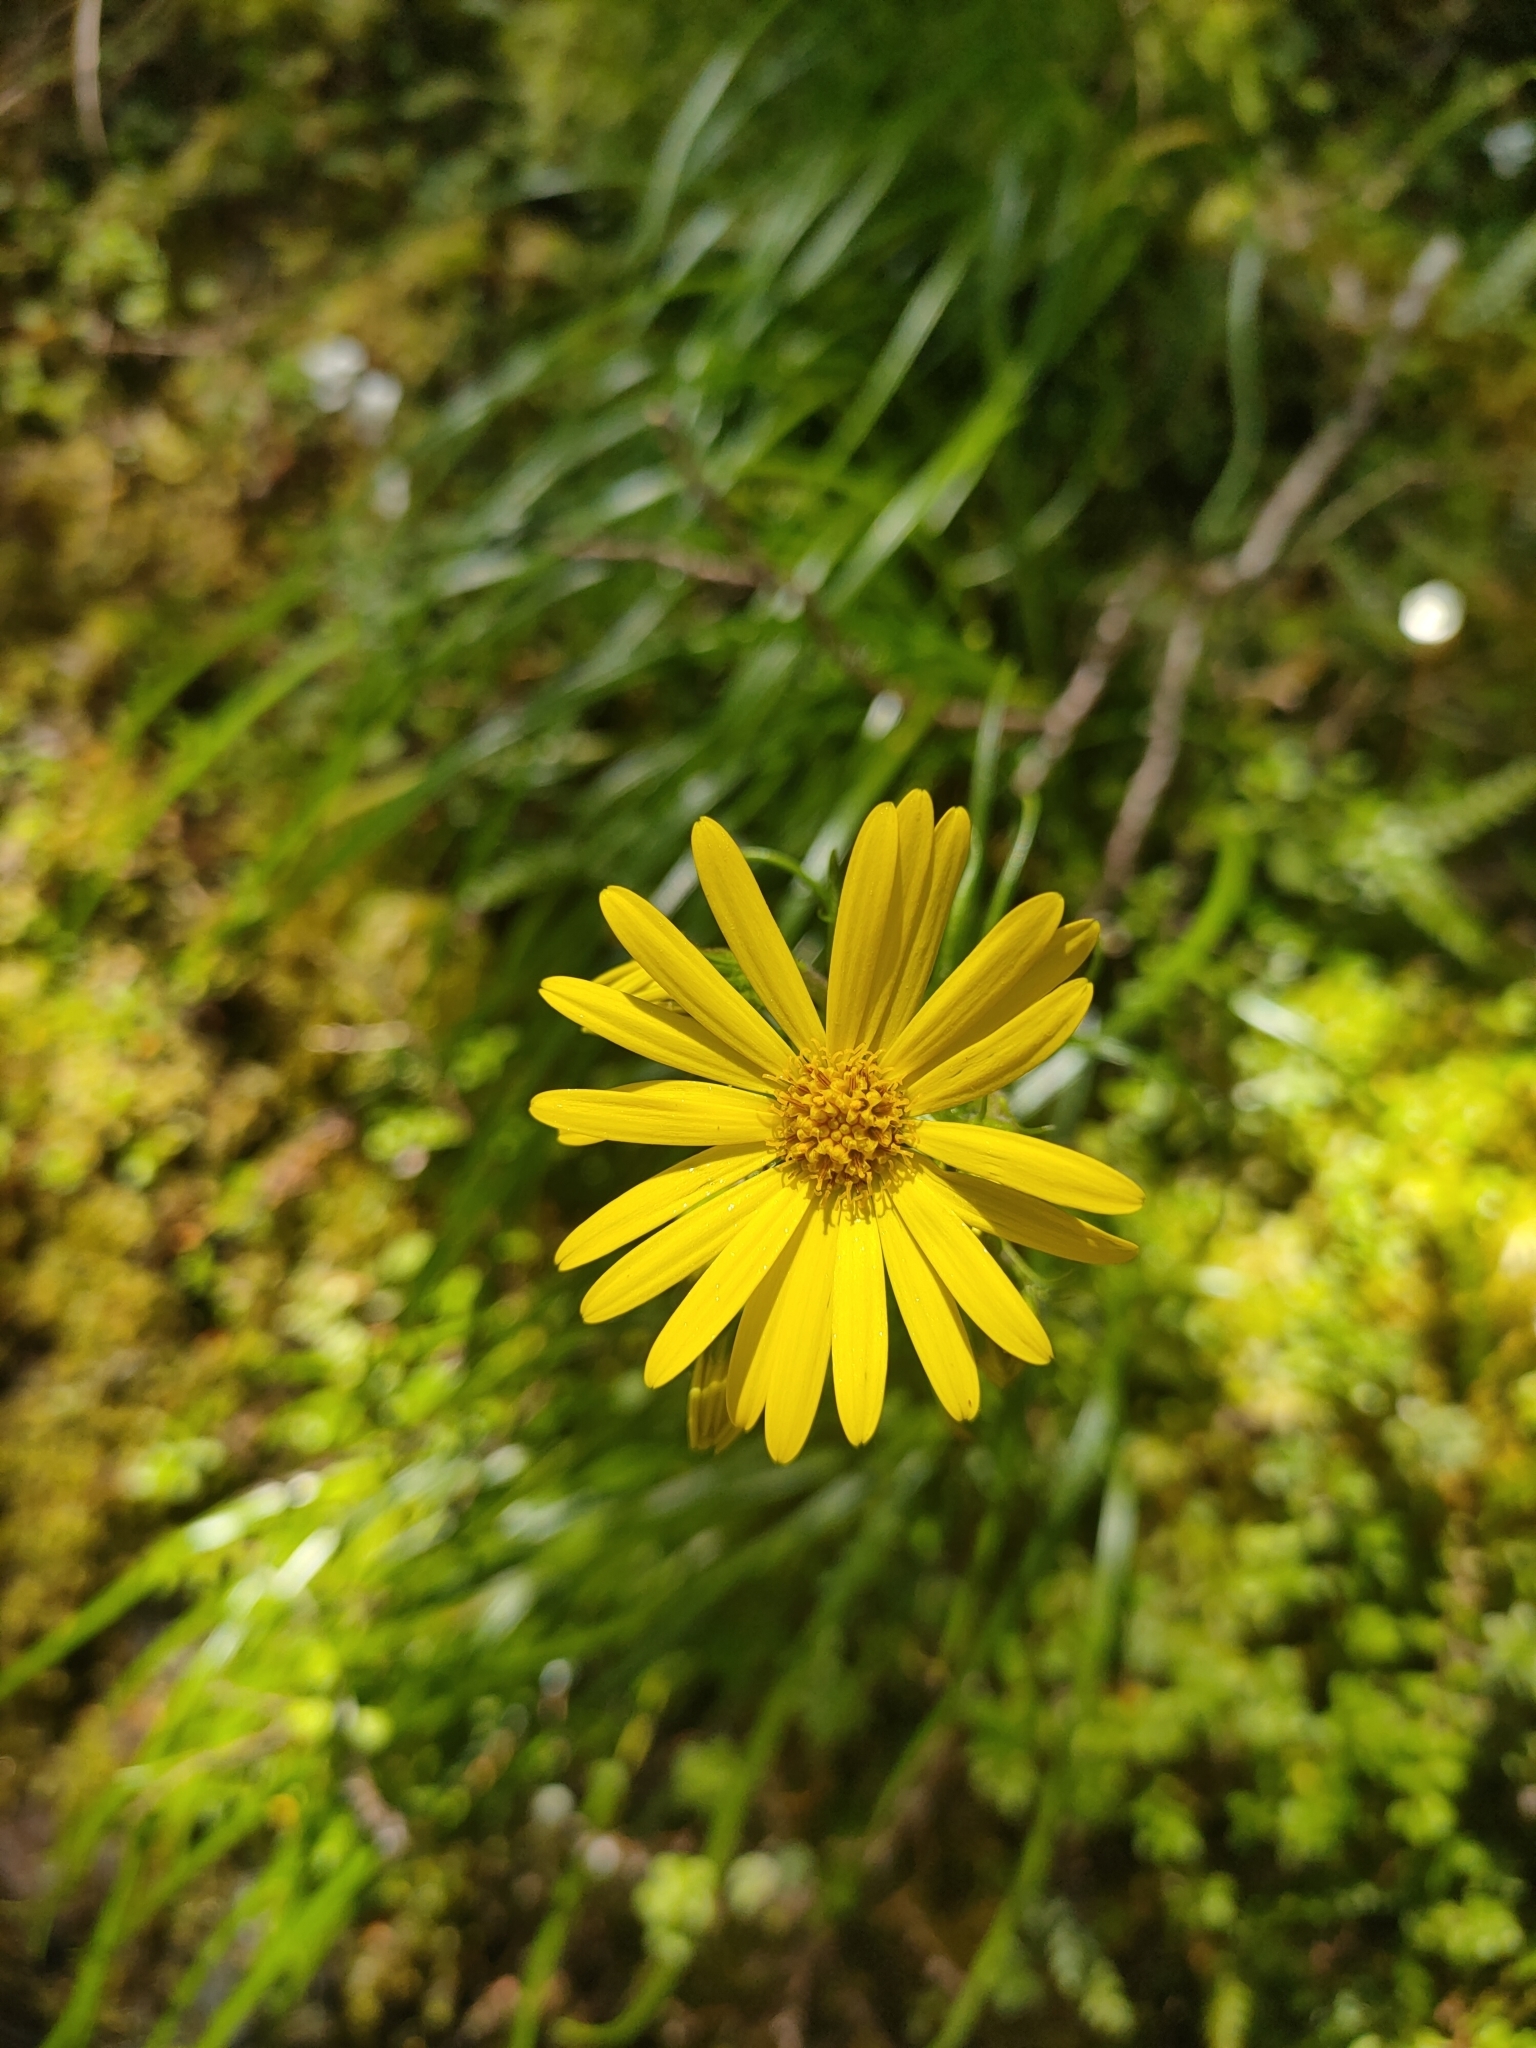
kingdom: Plantae
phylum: Tracheophyta
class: Magnoliopsida
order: Asterales
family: Asteraceae
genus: Dolichoglottis
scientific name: Dolichoglottis lyallii
